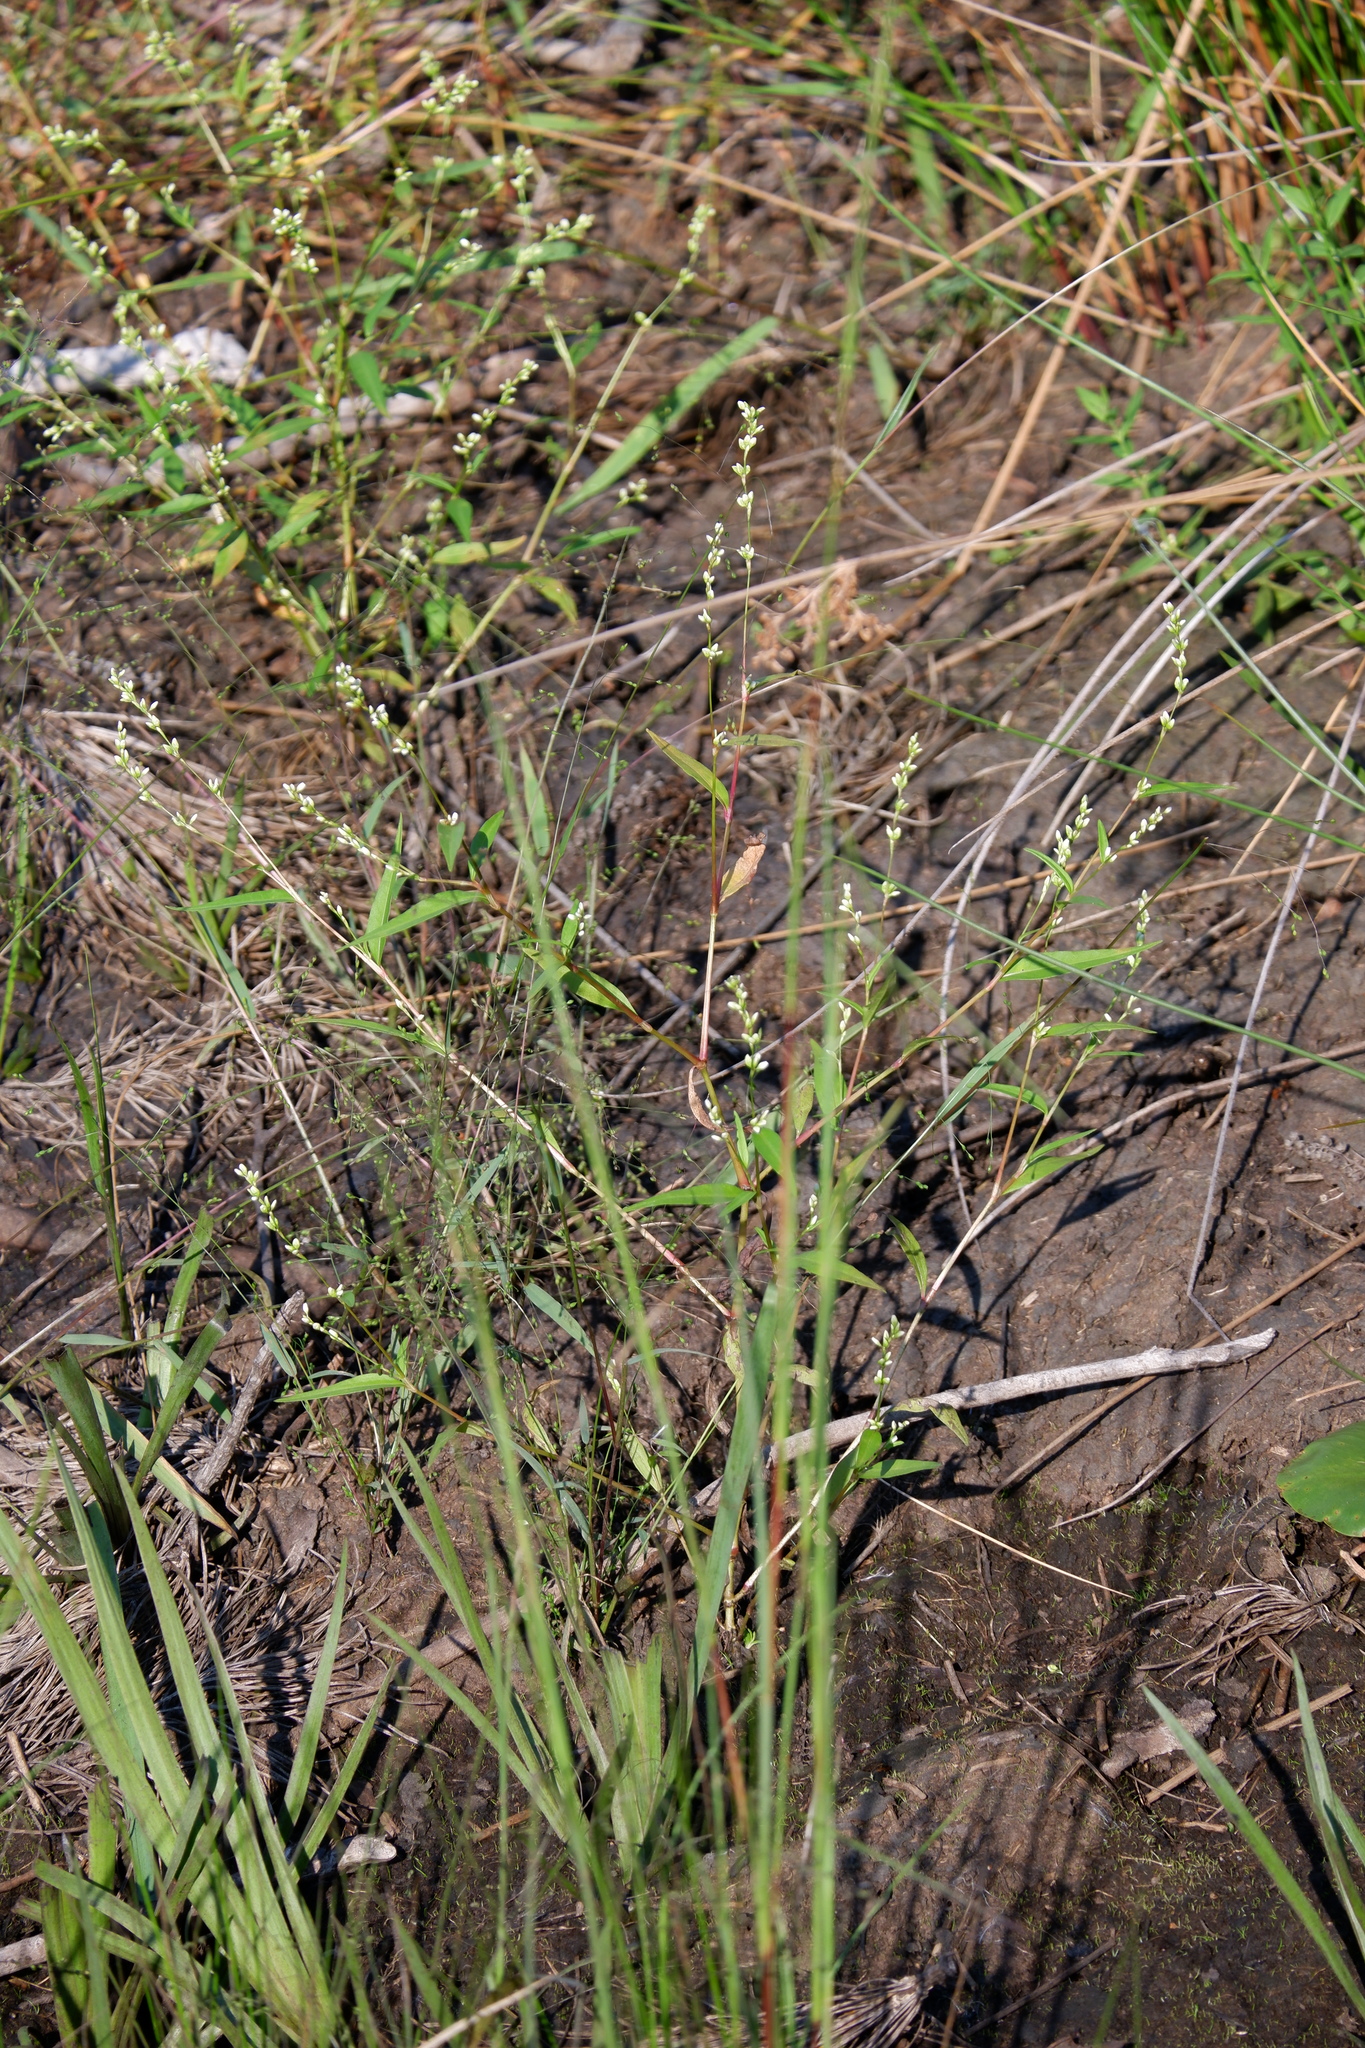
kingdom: Plantae
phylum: Tracheophyta
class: Magnoliopsida
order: Caryophyllales
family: Polygonaceae
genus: Persicaria
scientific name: Persicaria punctata
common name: Dotted smartweed
